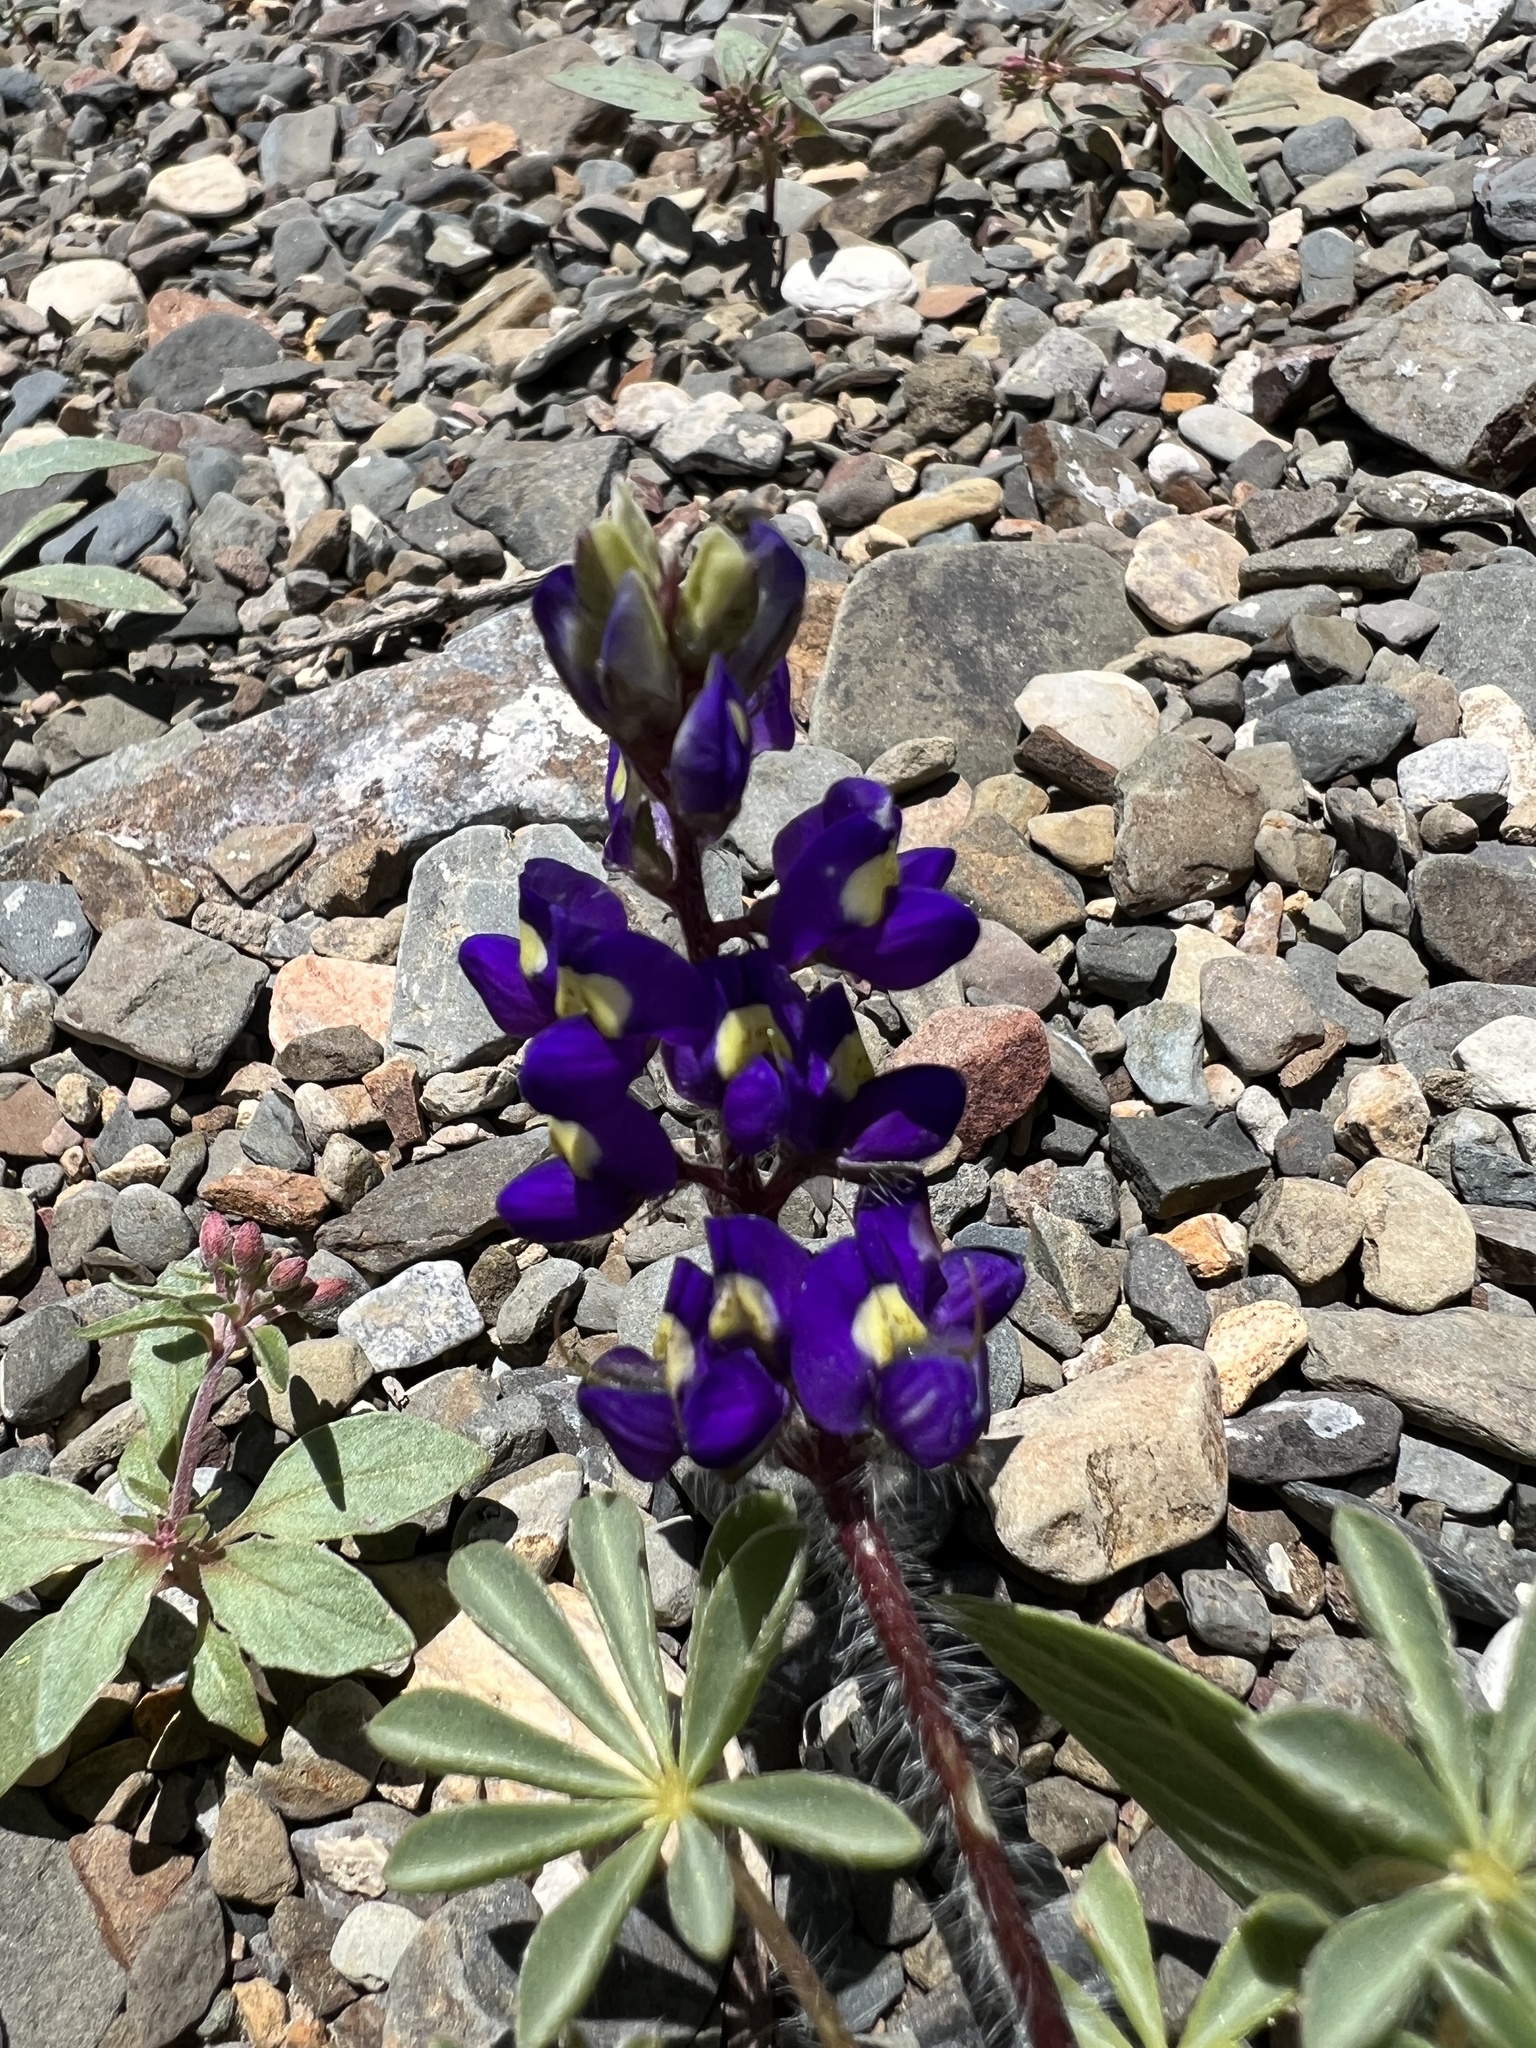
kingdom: Plantae
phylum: Tracheophyta
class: Magnoliopsida
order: Fabales
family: Fabaceae
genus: Lupinus
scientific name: Lupinus flavoculatus
